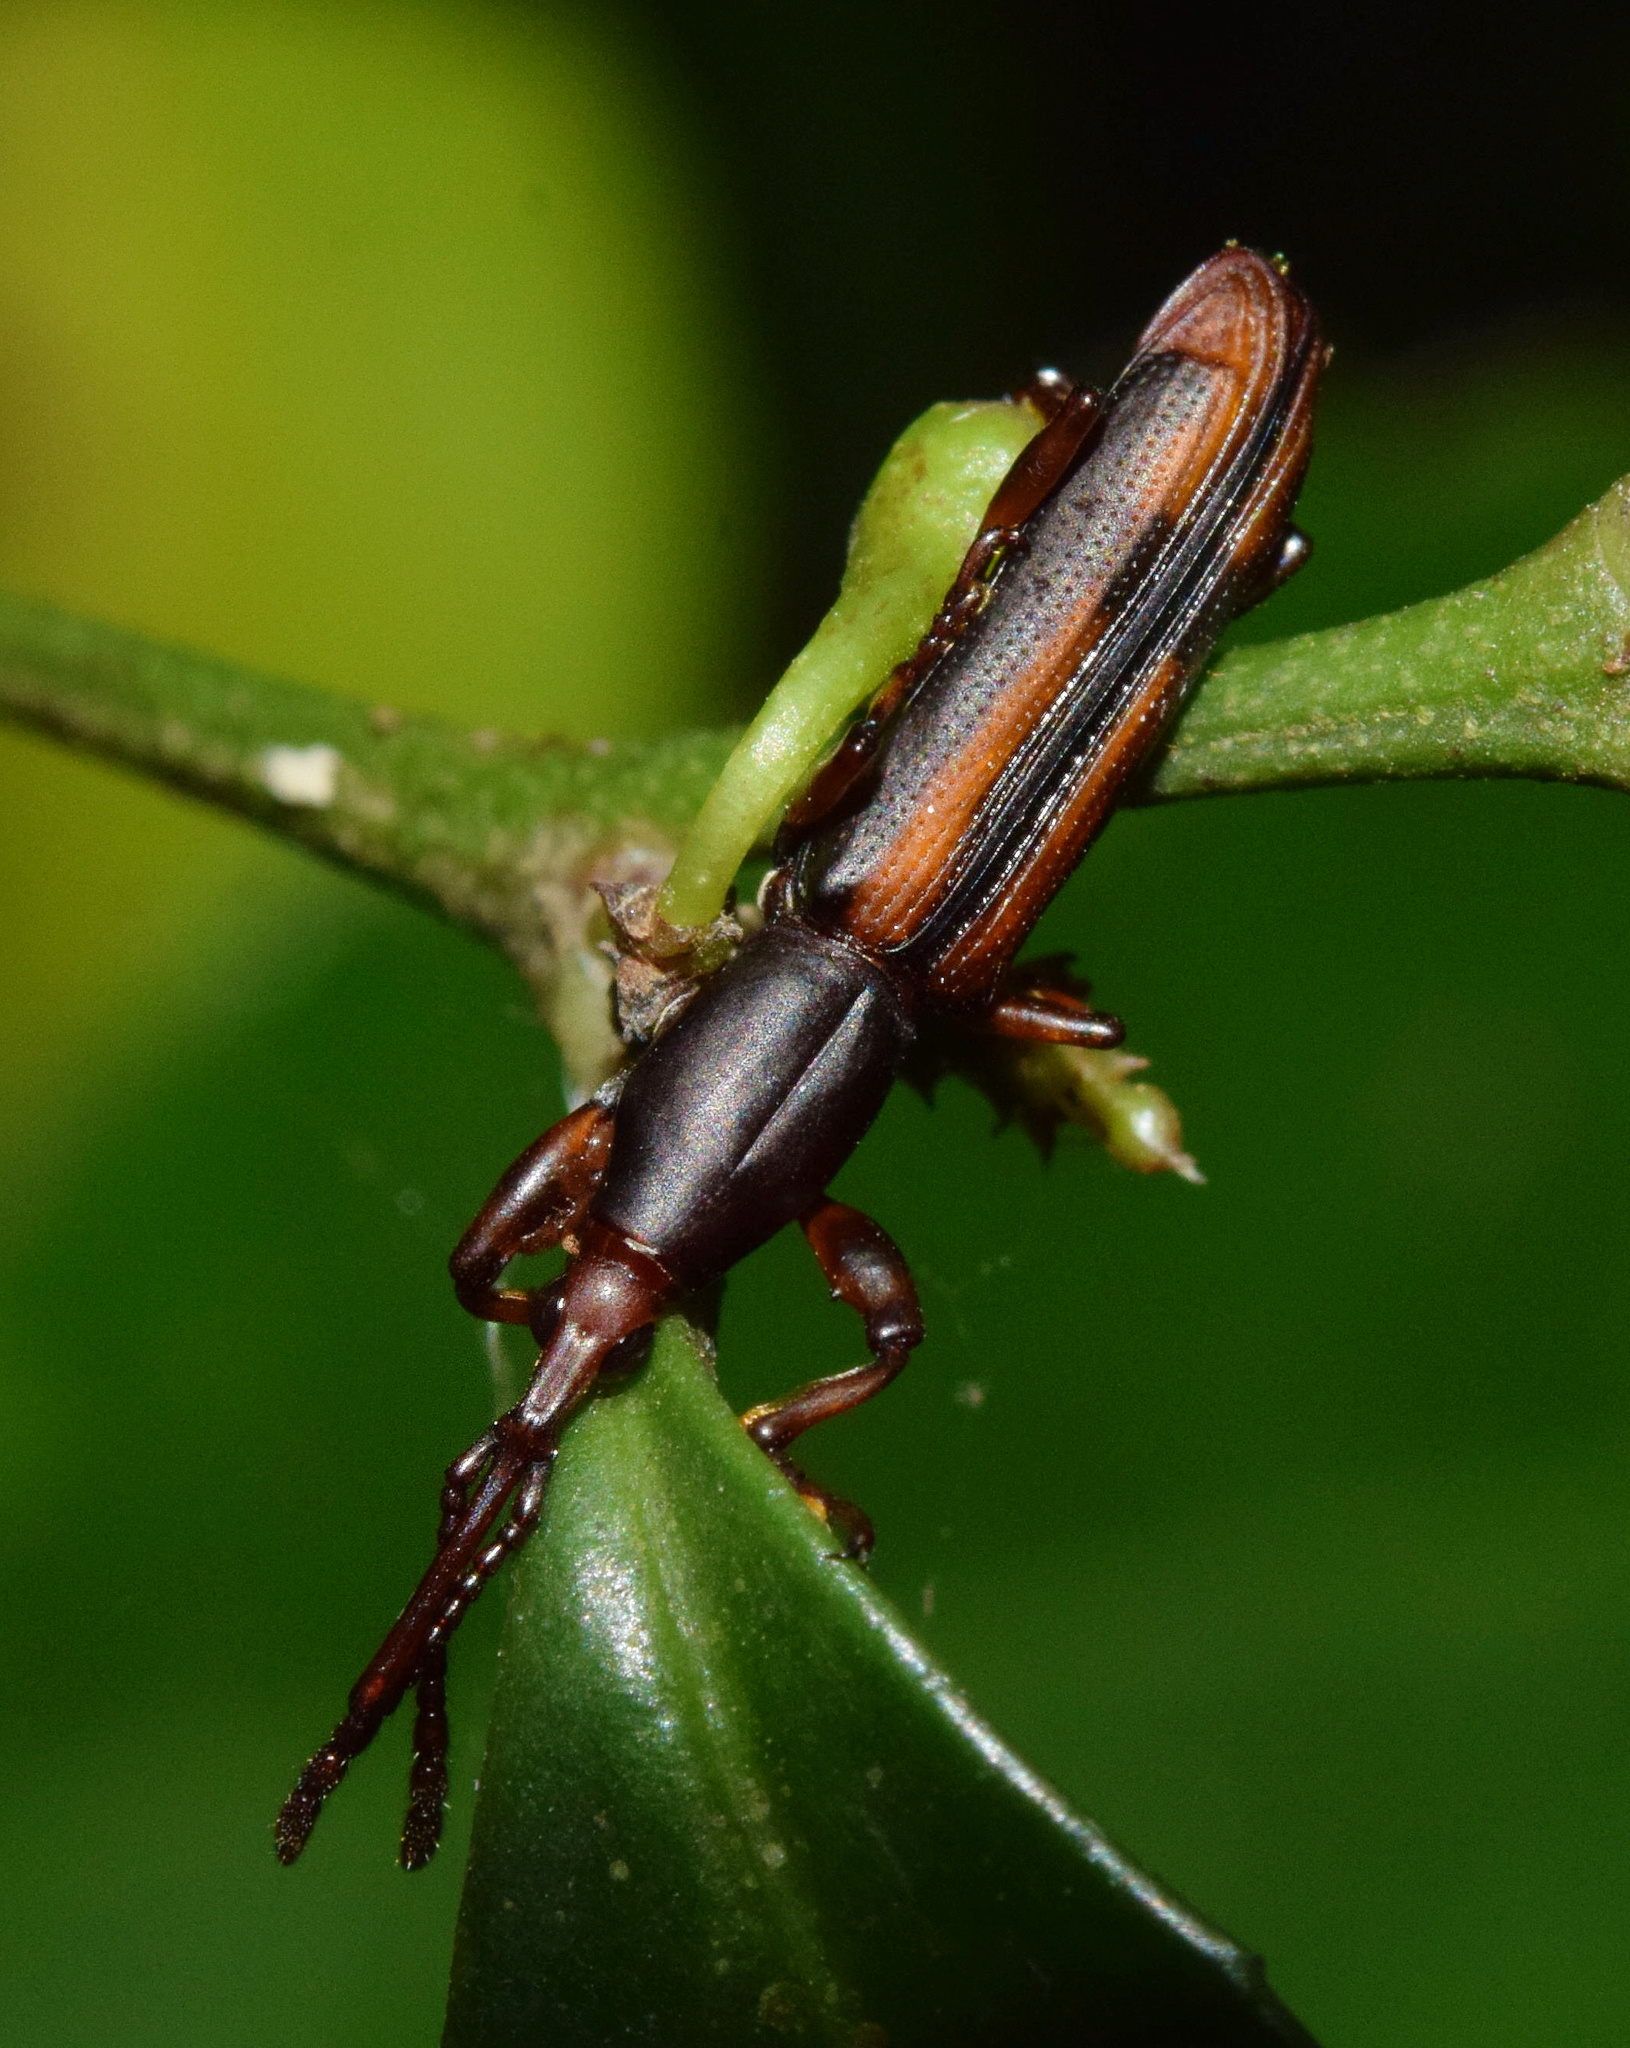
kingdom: Animalia
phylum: Arthropoda
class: Insecta
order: Coleoptera
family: Brentidae
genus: Gynandrorhynchus
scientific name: Gynandrorhynchus vittipennis
